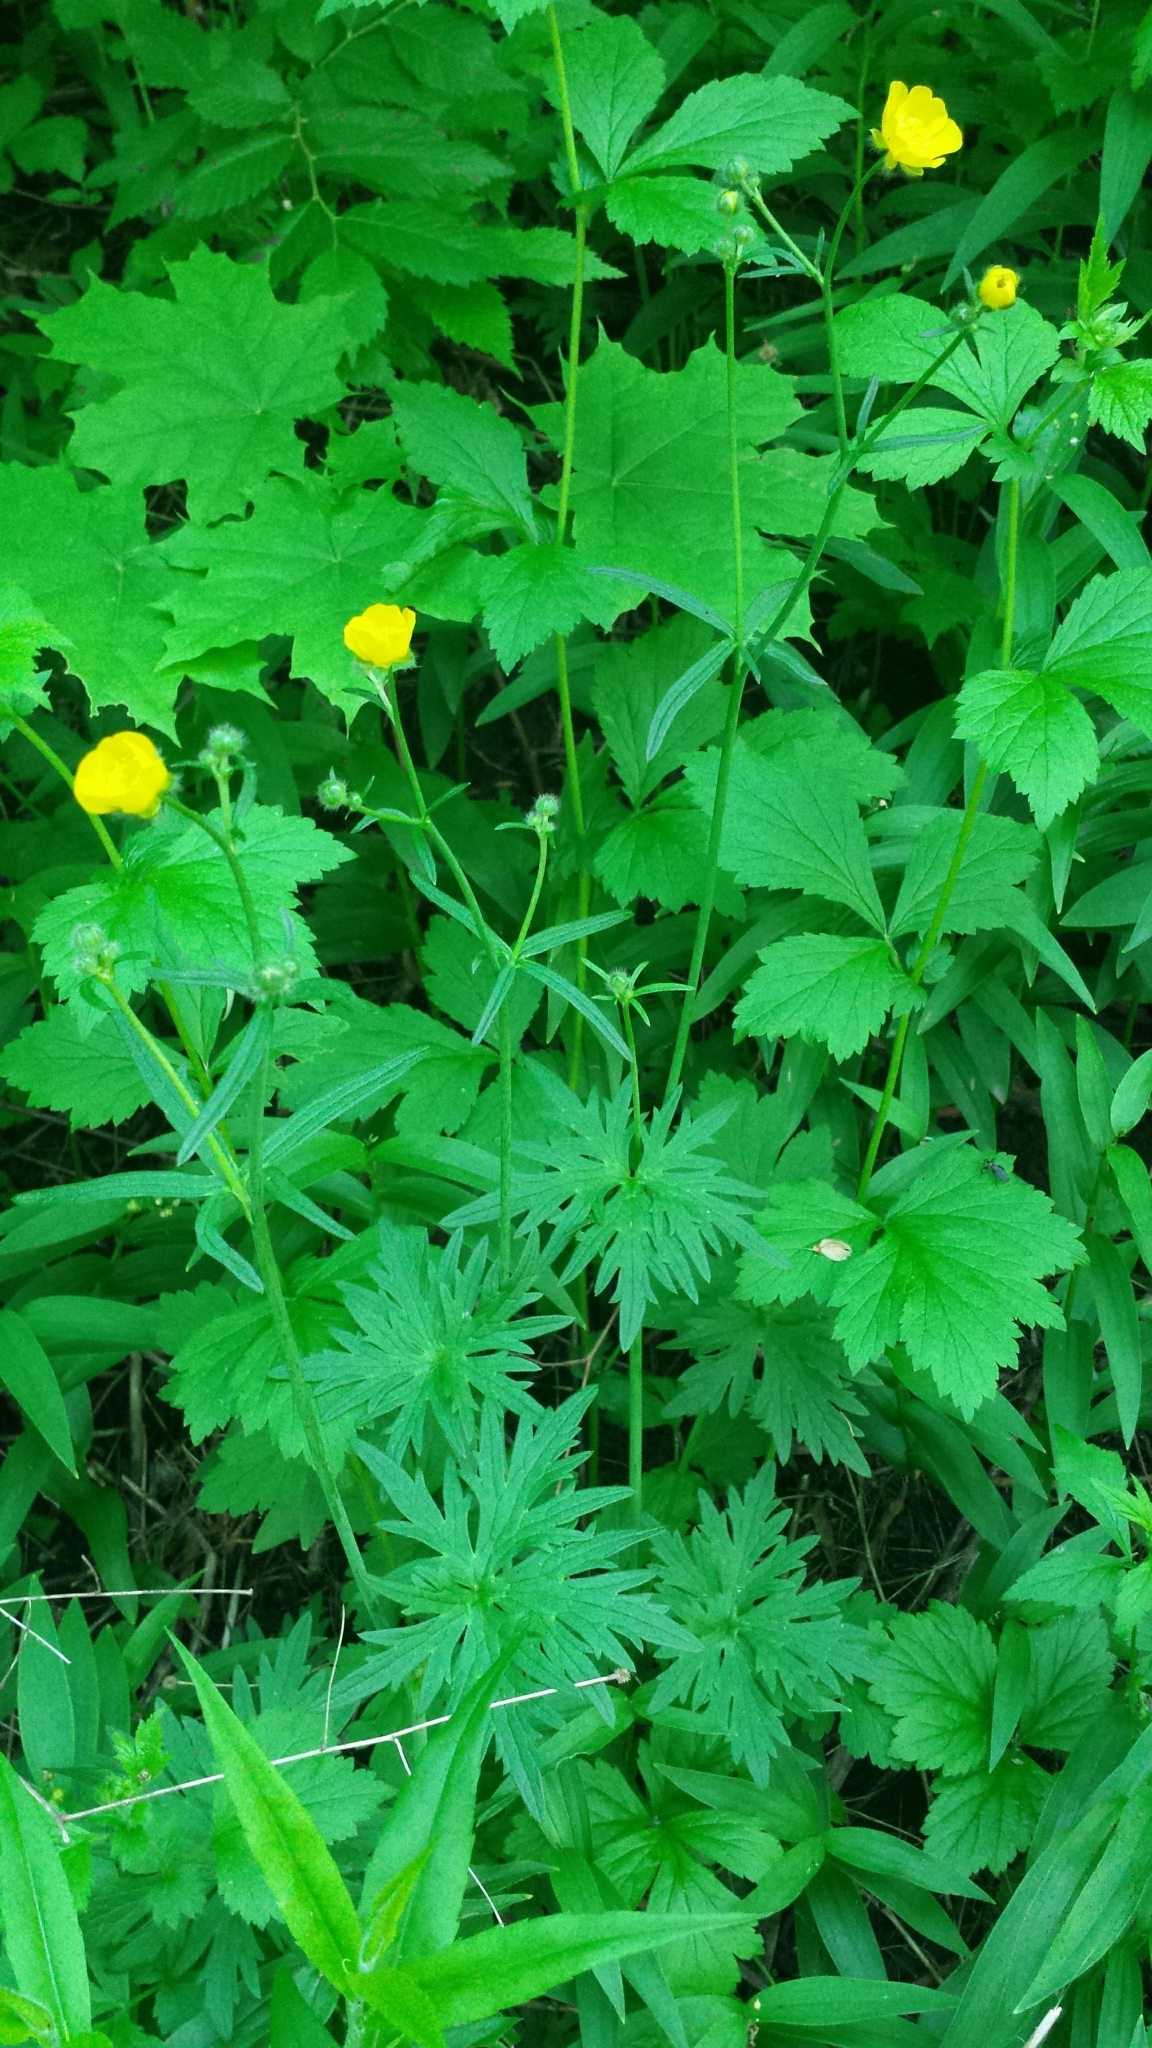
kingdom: Plantae
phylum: Tracheophyta
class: Magnoliopsida
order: Ranunculales
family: Ranunculaceae
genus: Ranunculus
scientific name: Ranunculus acris
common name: Meadow buttercup
